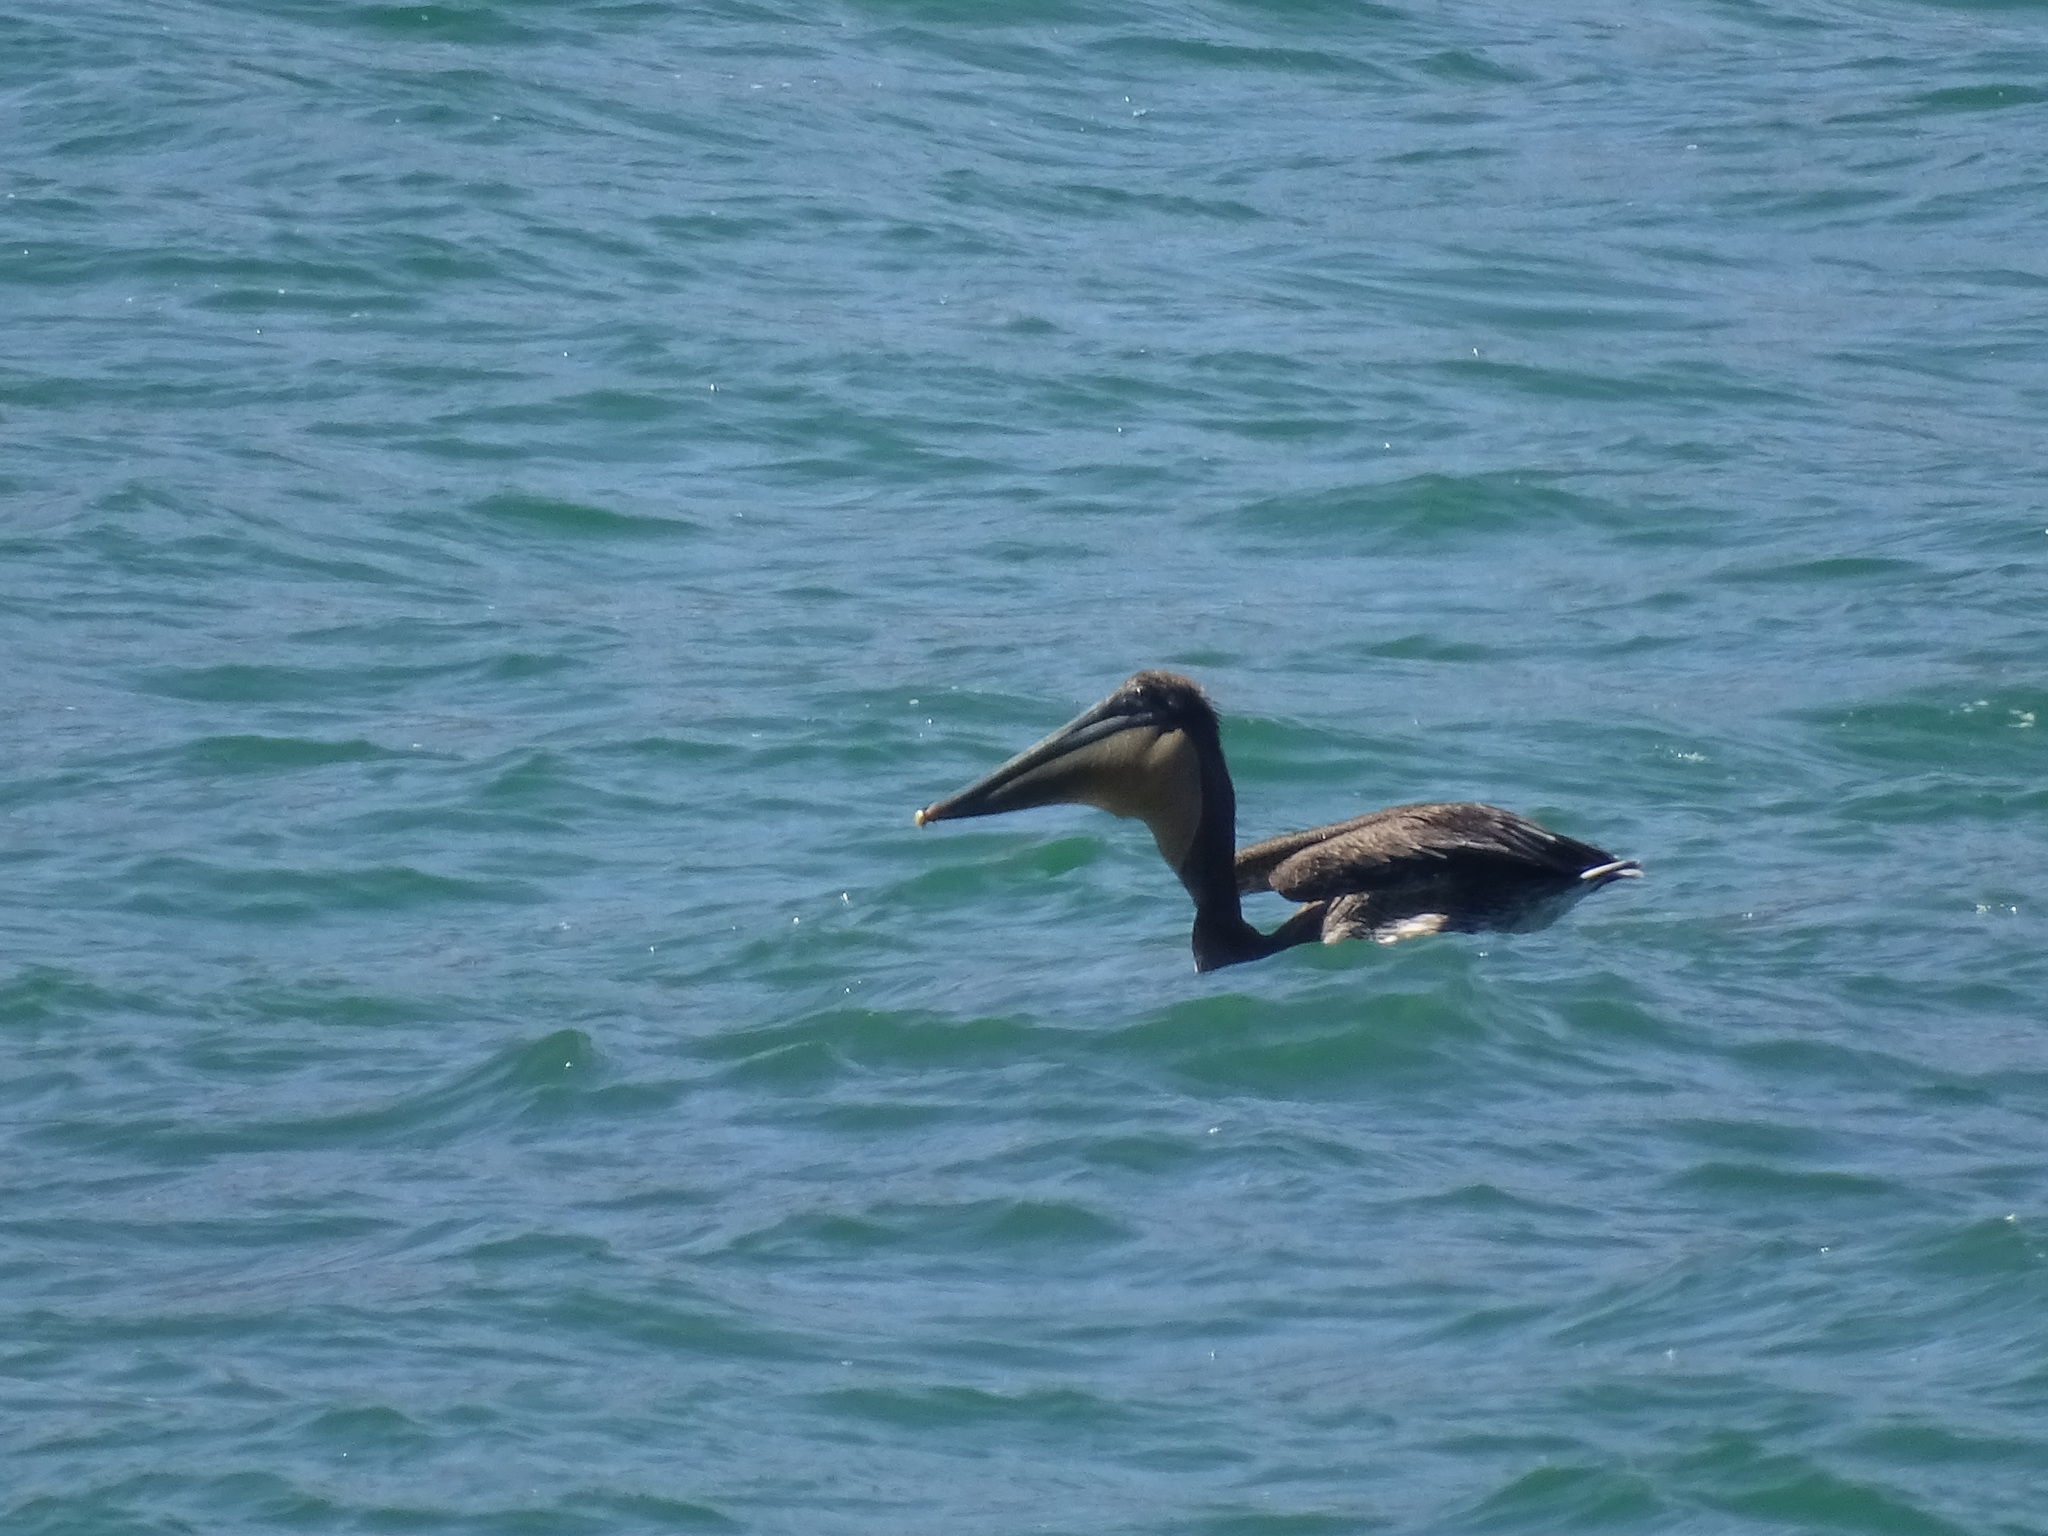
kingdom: Animalia
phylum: Chordata
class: Aves
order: Pelecaniformes
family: Pelecanidae
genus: Pelecanus
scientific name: Pelecanus occidentalis
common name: Brown pelican
